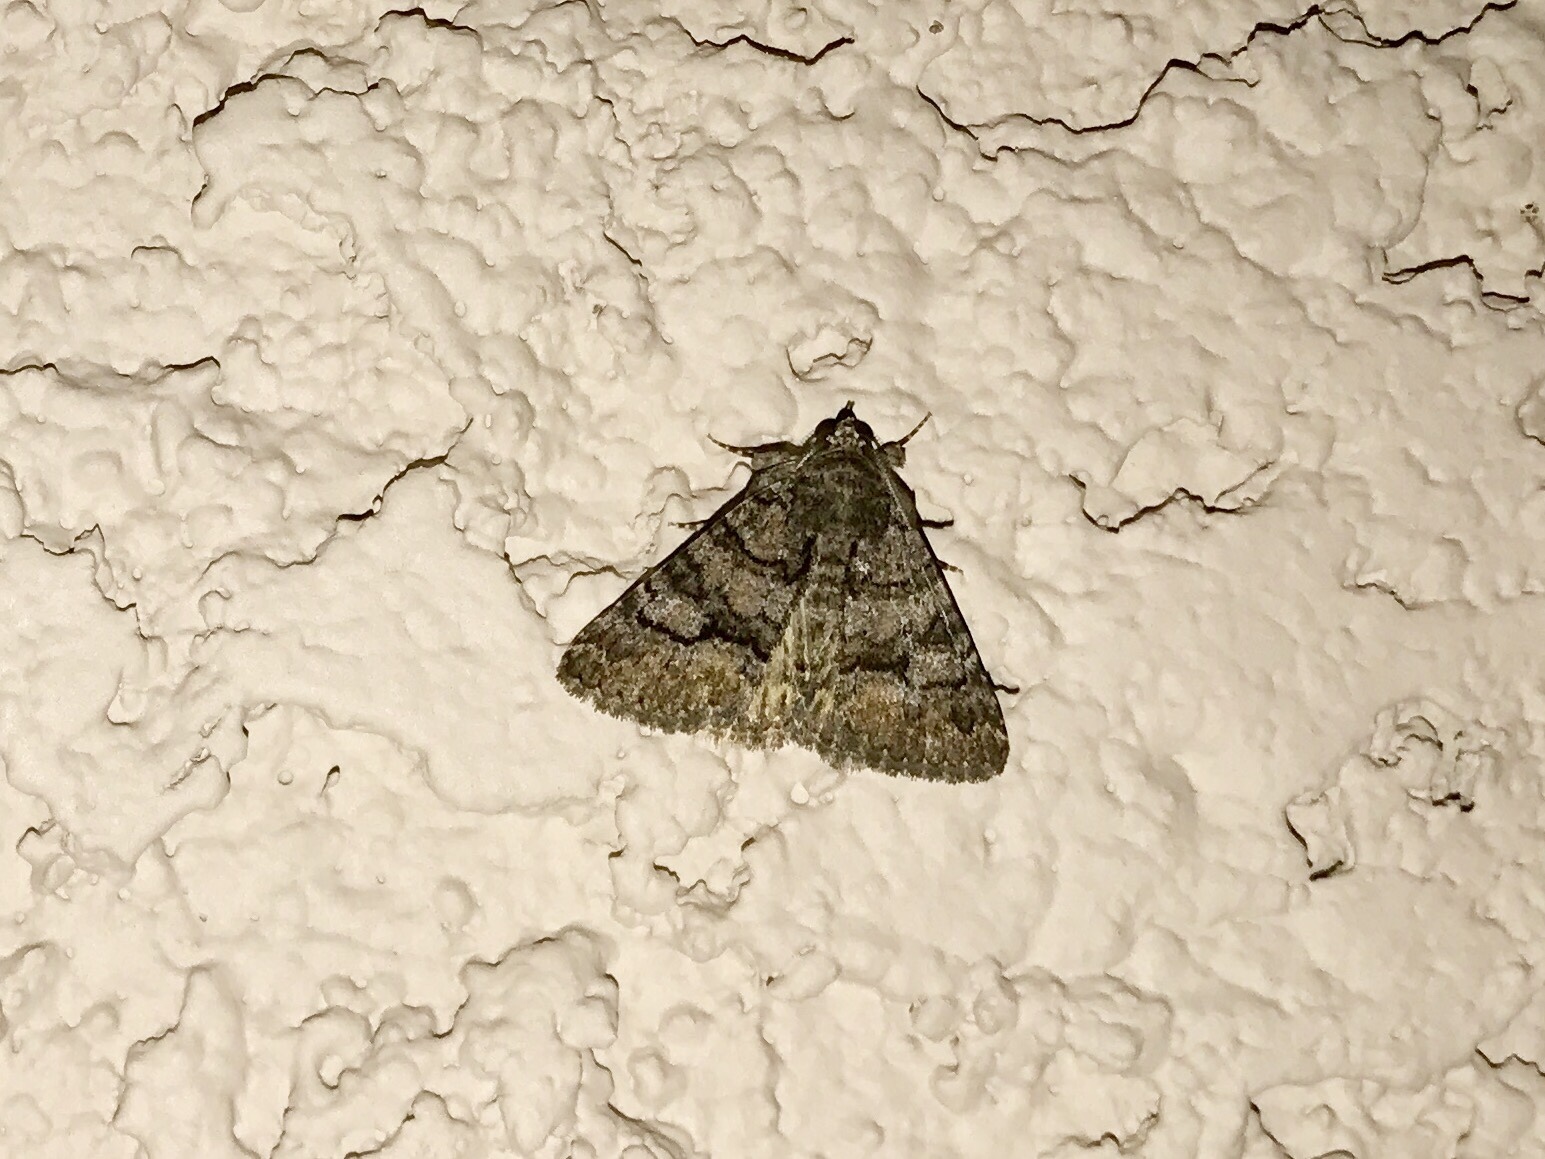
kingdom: Animalia
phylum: Arthropoda
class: Insecta
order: Lepidoptera
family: Erebidae
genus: Elousa
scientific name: Elousa mima
